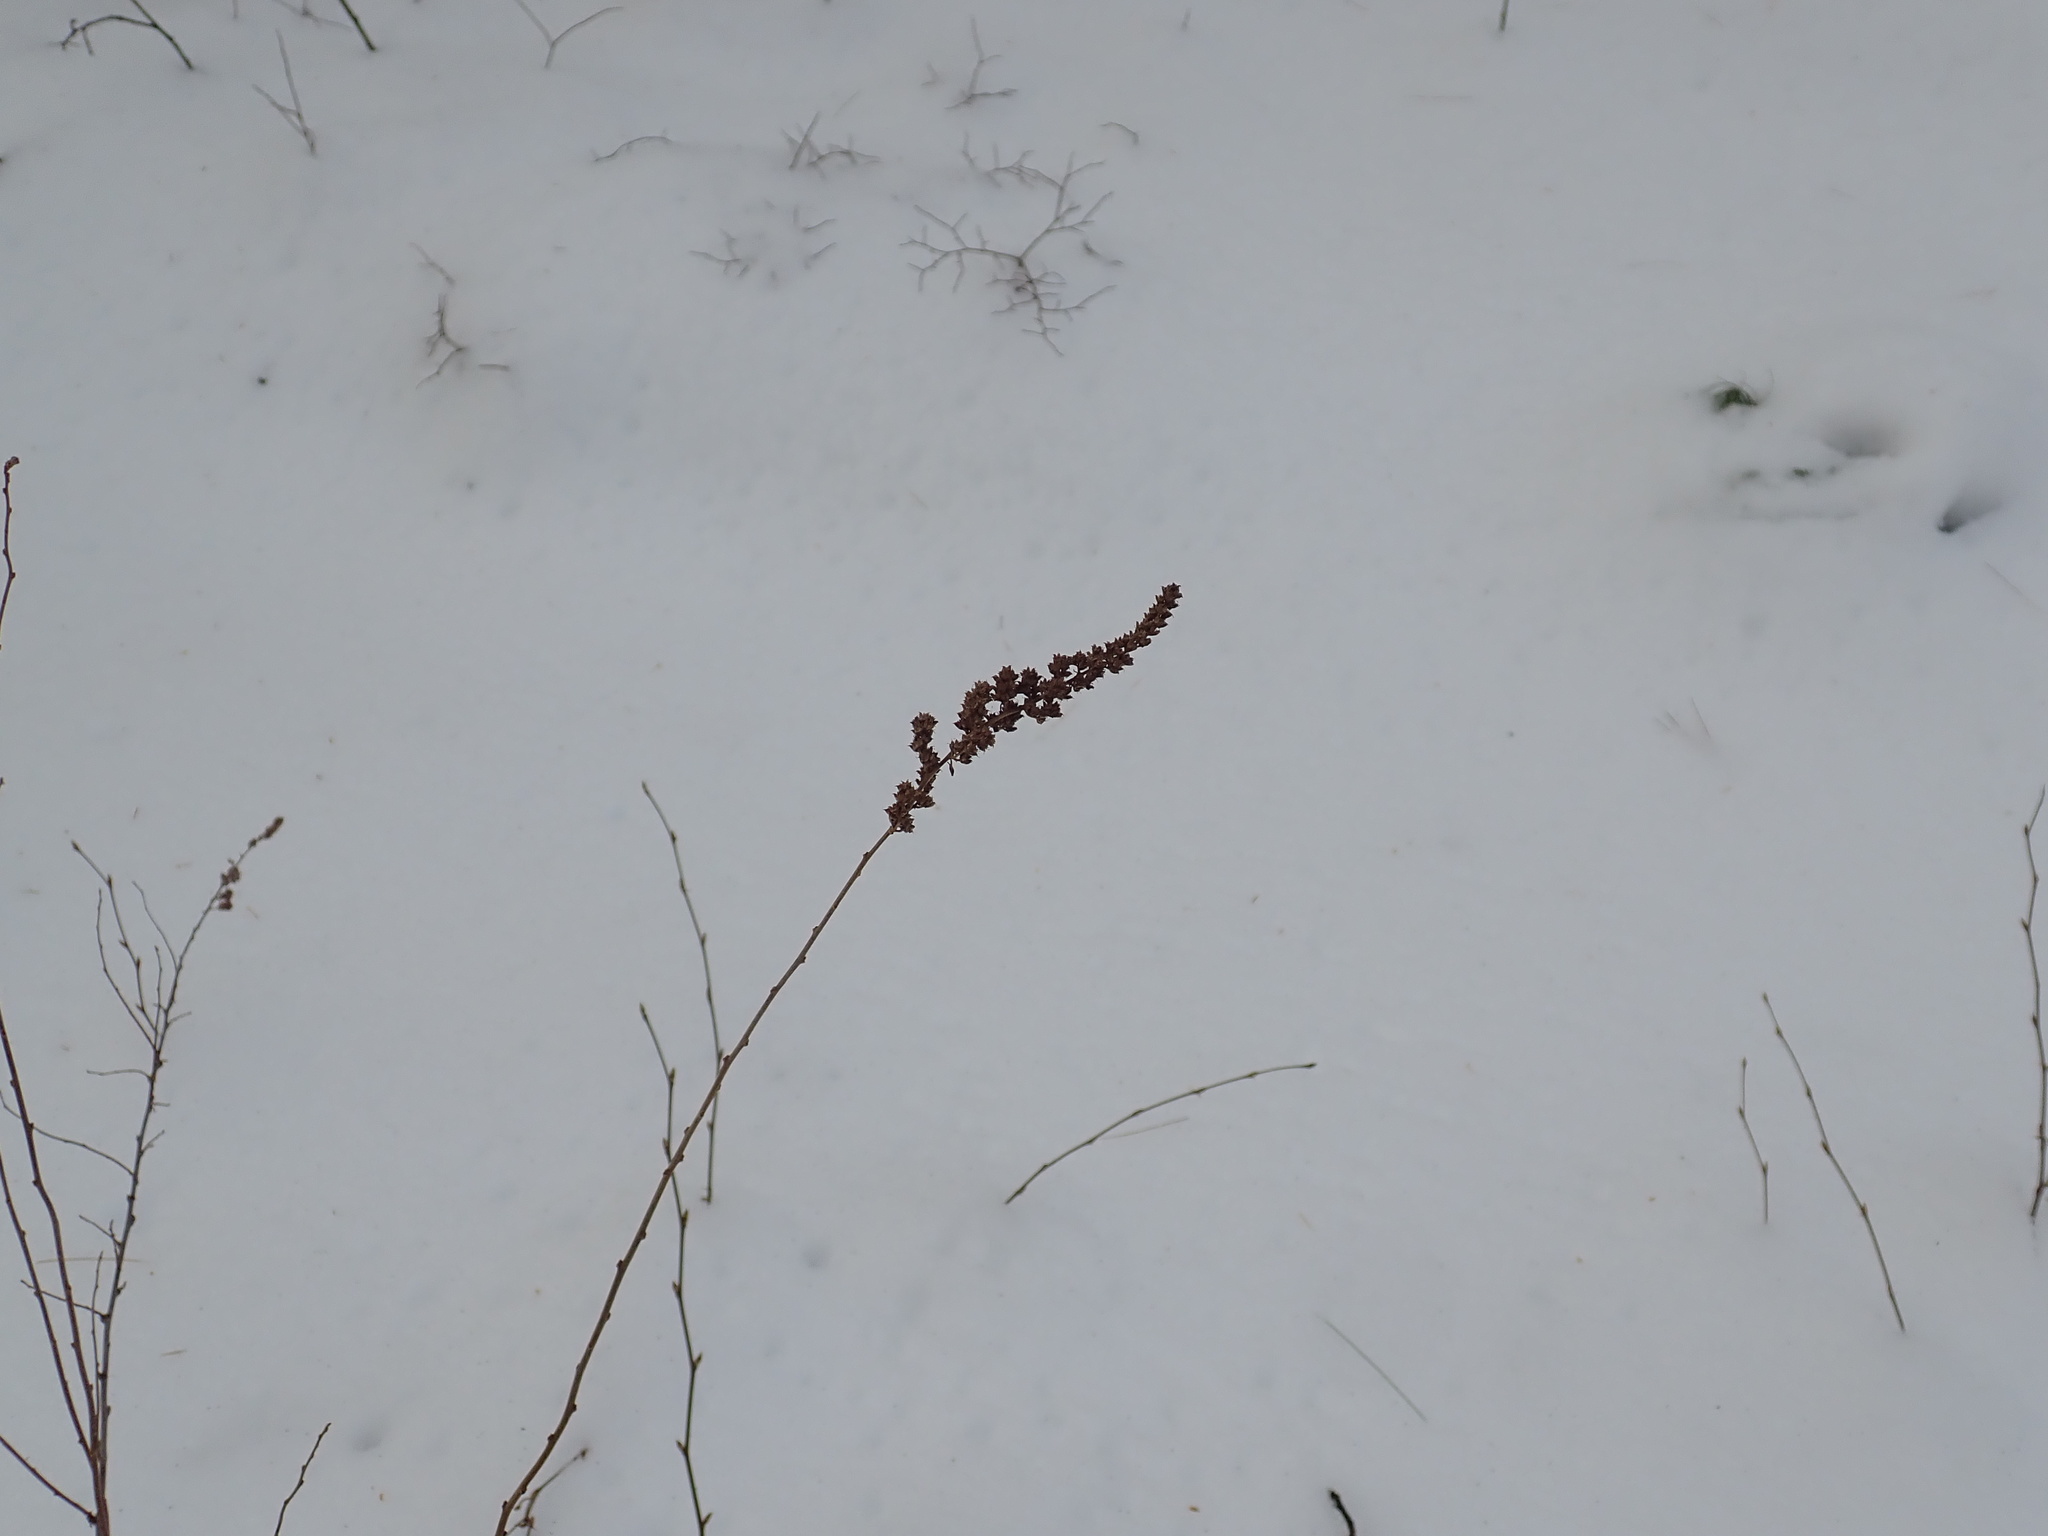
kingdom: Plantae
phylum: Tracheophyta
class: Magnoliopsida
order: Rosales
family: Rosaceae
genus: Spiraea
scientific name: Spiraea tomentosa
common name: Hardhack
